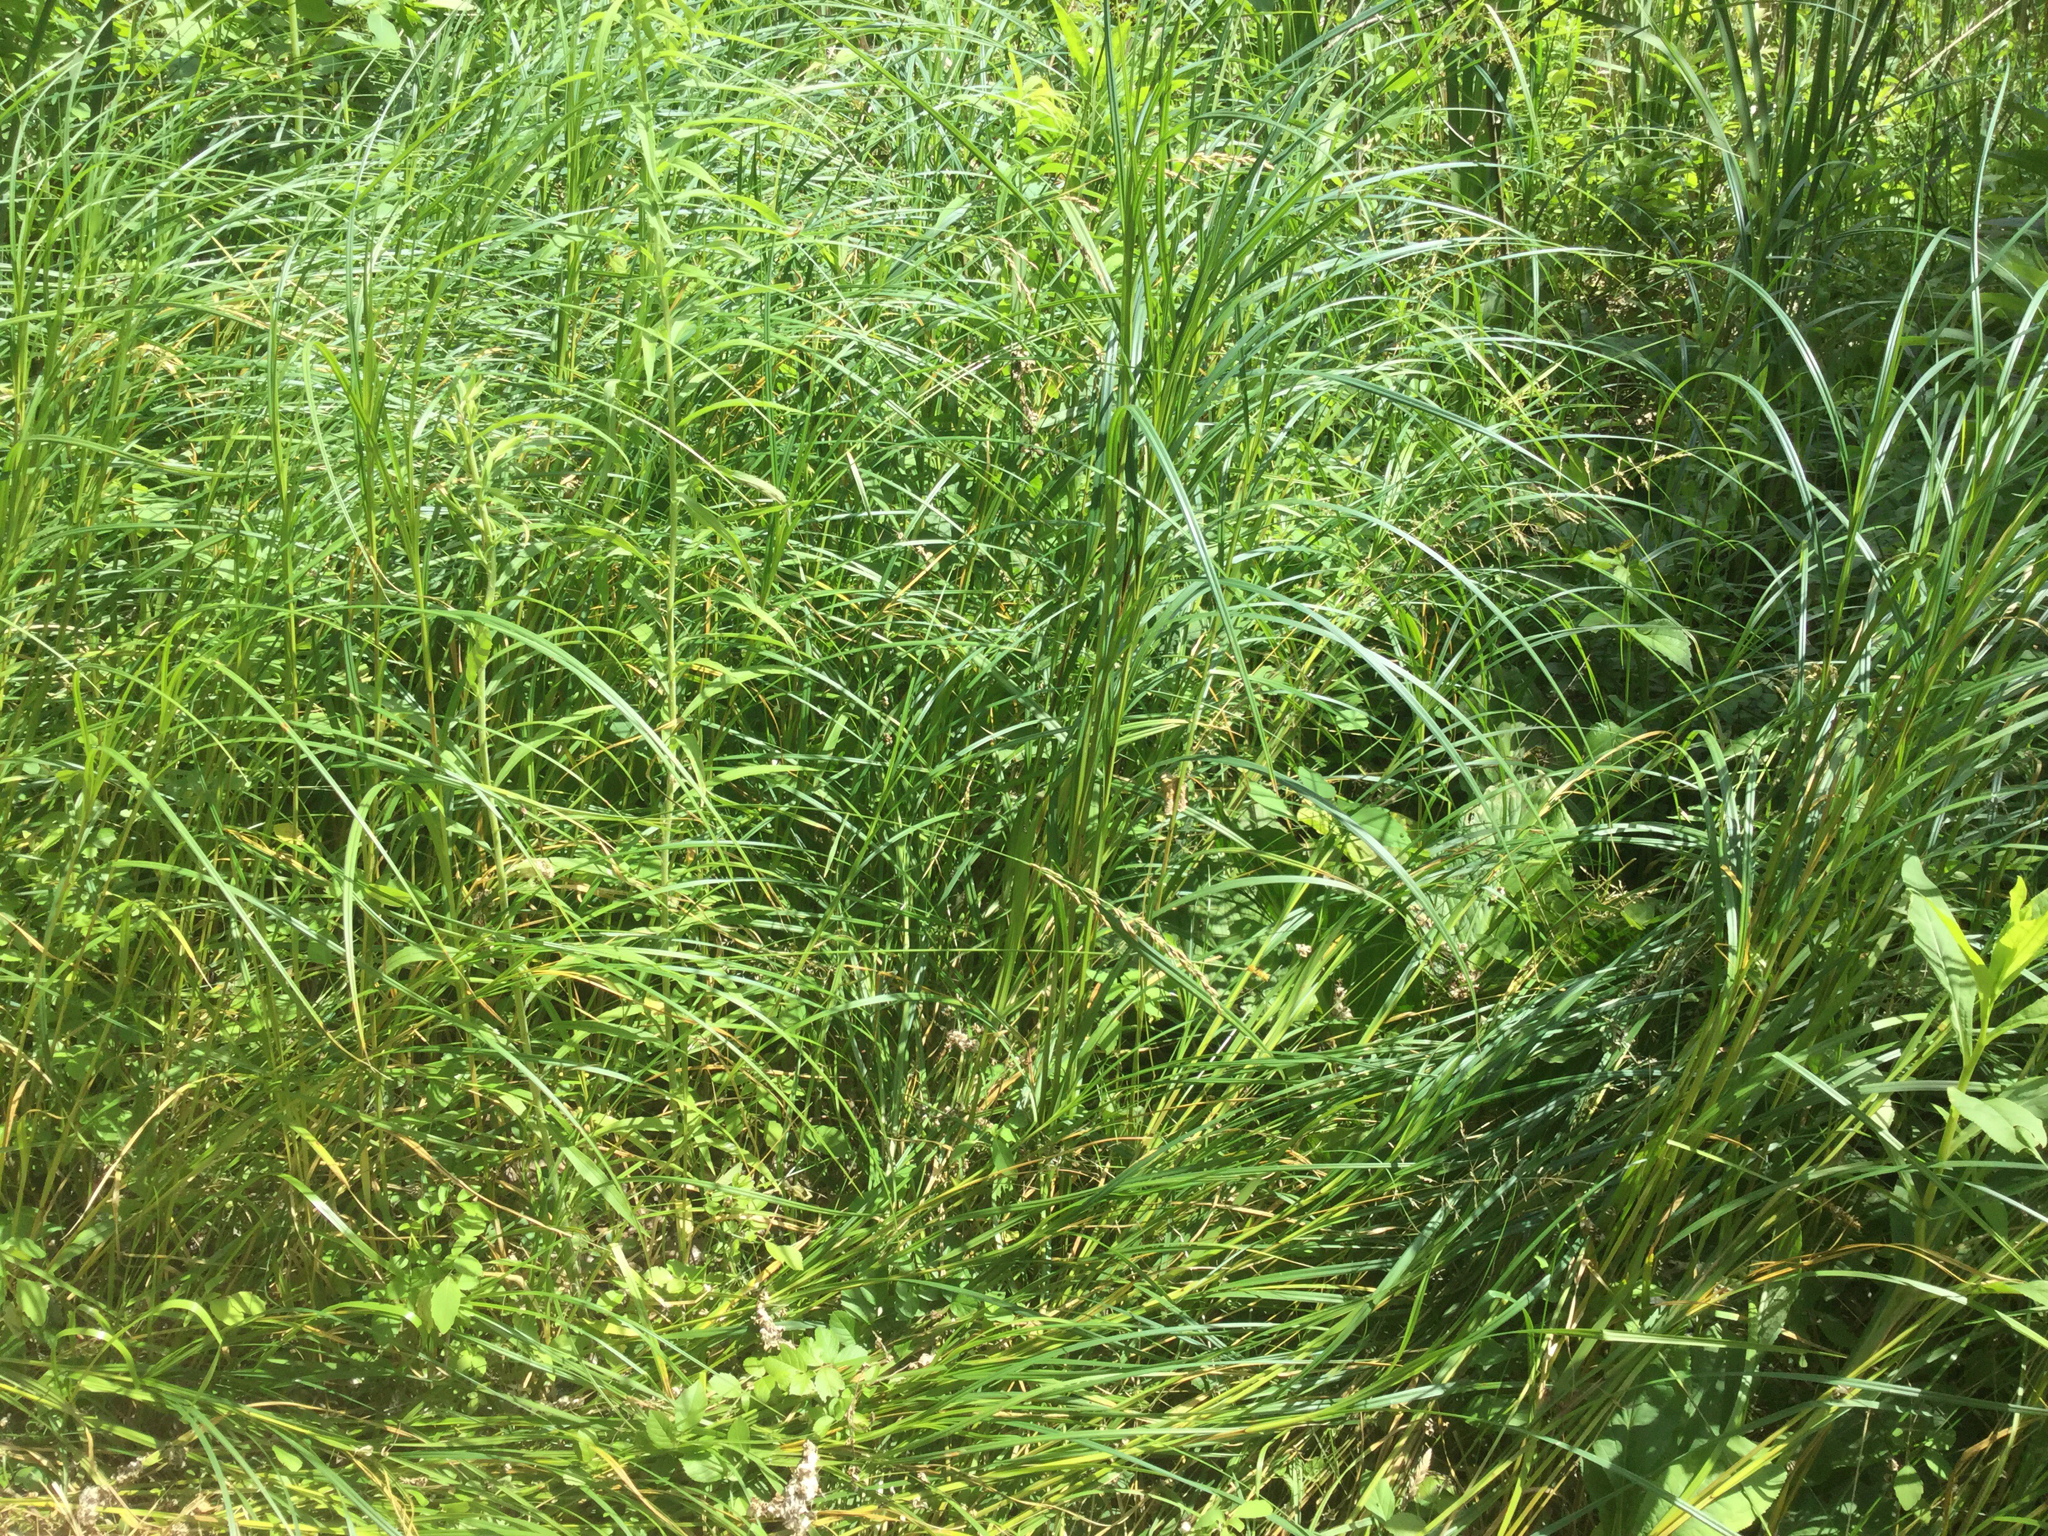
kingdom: Plantae
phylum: Tracheophyta
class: Liliopsida
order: Poales
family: Cyperaceae
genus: Carex
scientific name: Carex trichocarpa
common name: Hairy-fruited lake sedge
